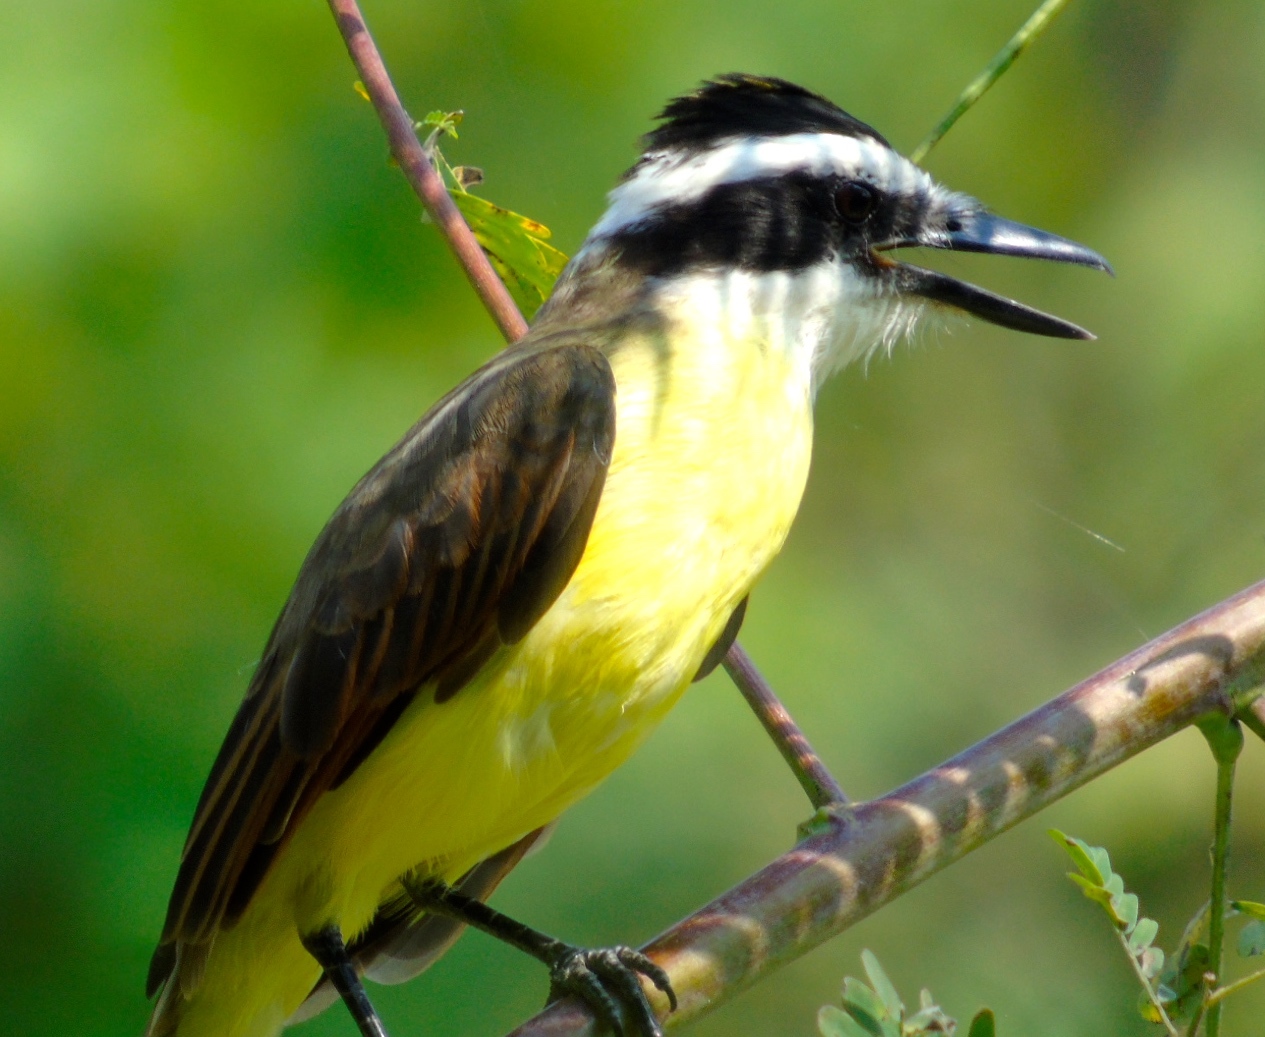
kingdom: Animalia
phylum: Chordata
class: Aves
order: Passeriformes
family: Tyrannidae
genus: Pitangus
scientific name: Pitangus sulphuratus
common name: Great kiskadee
